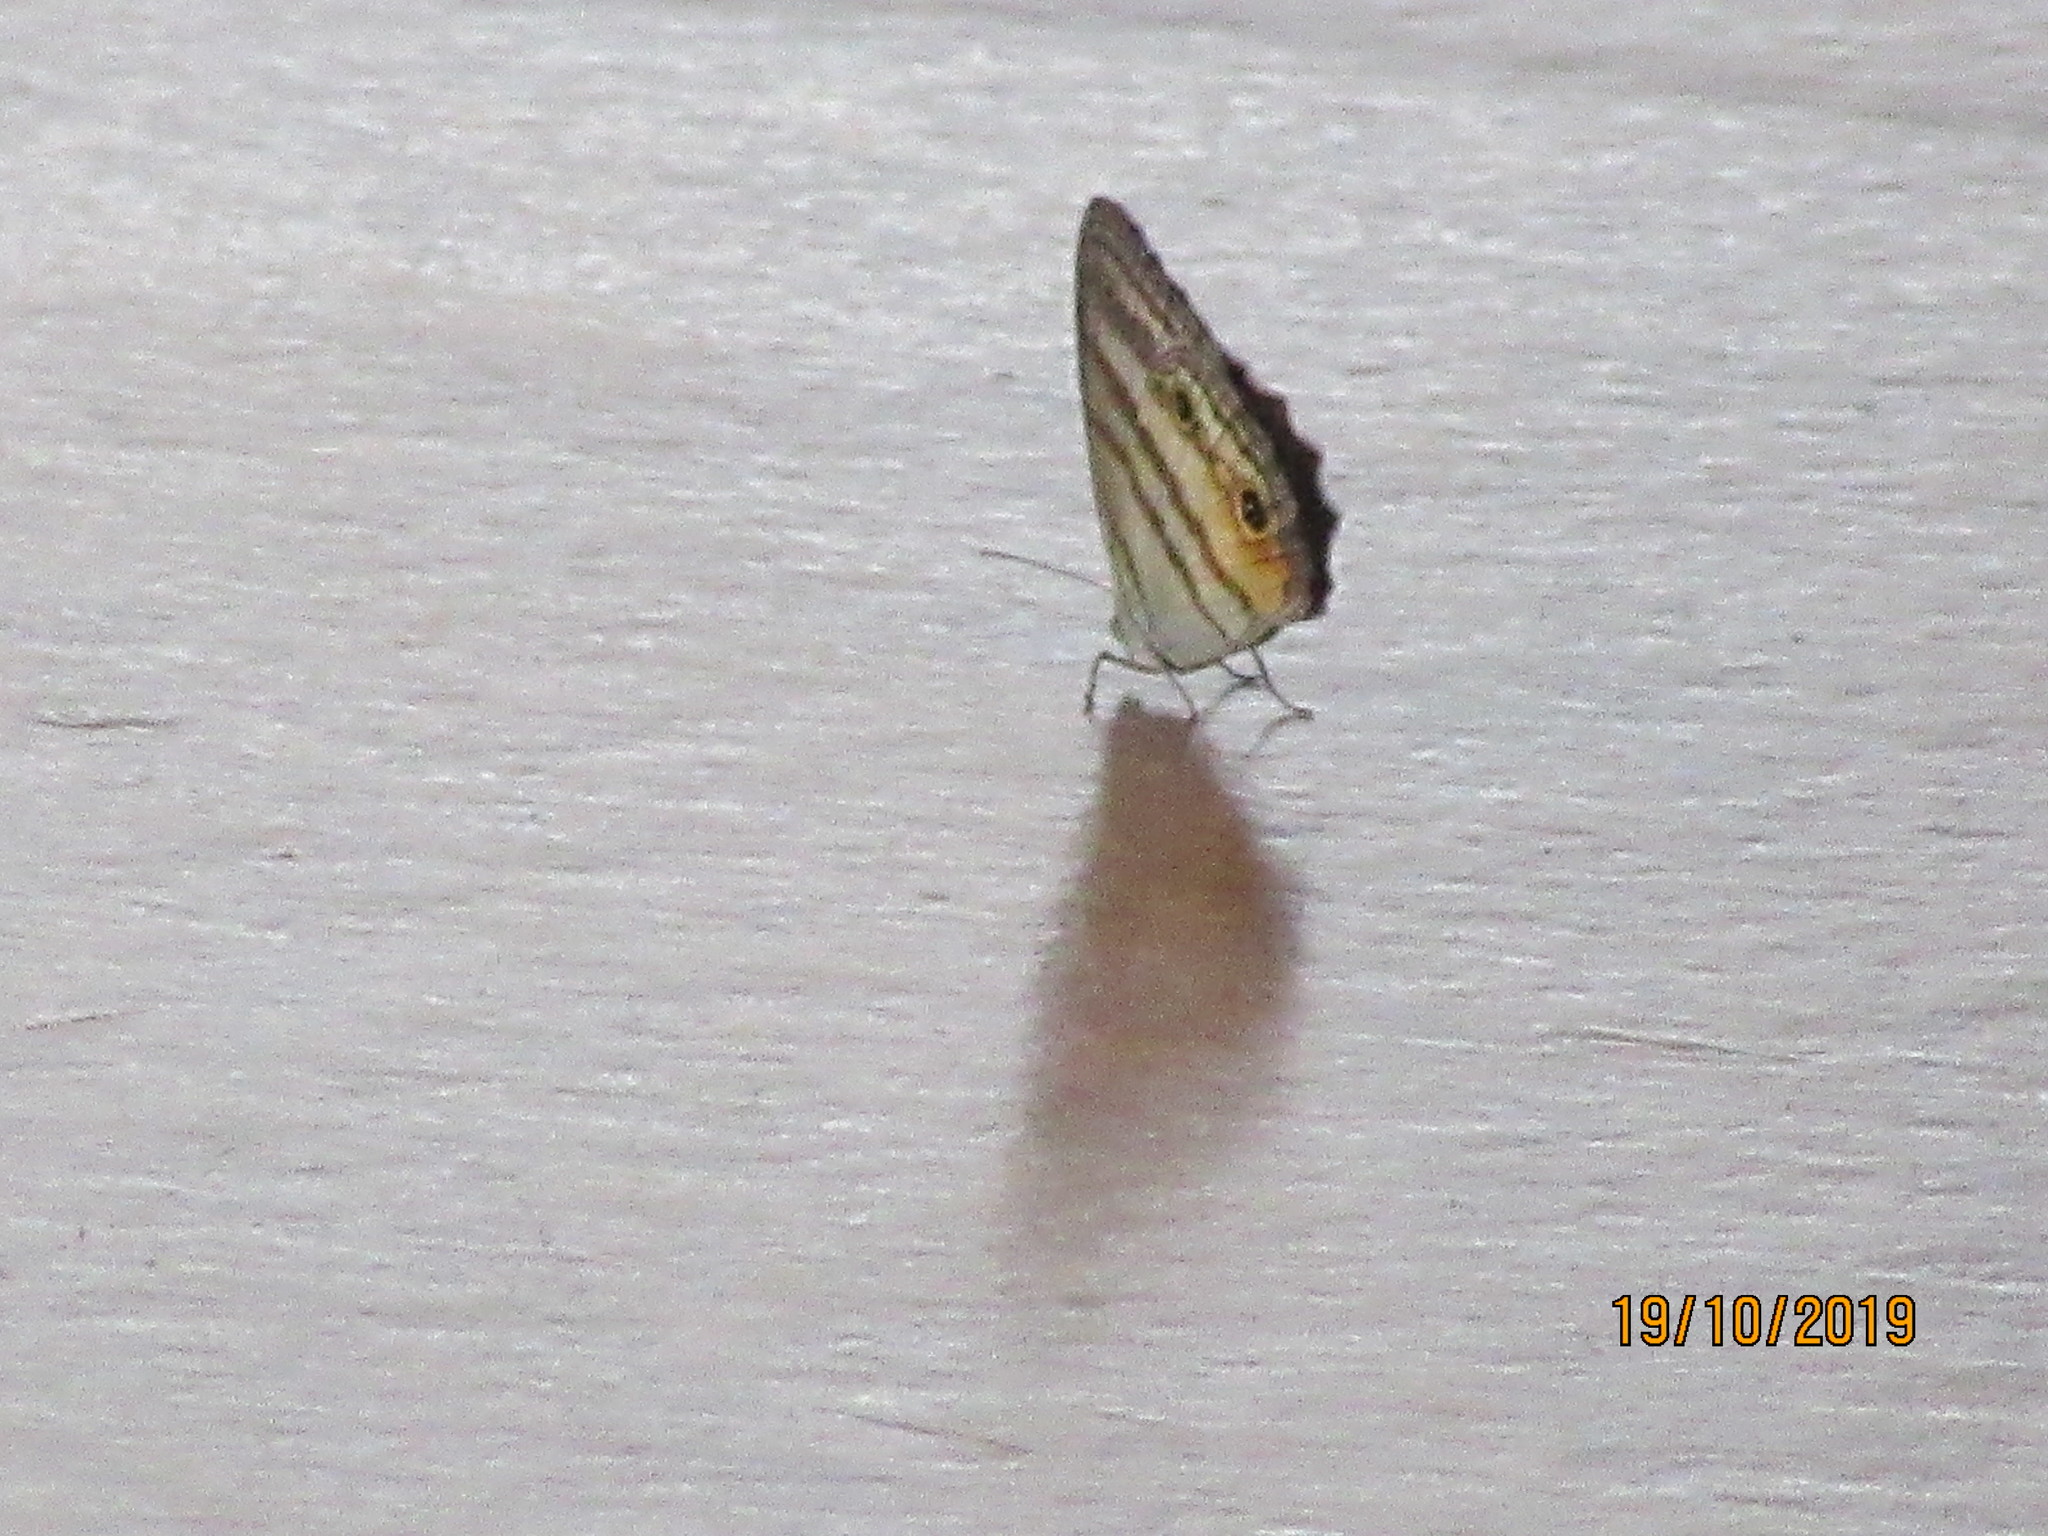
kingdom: Animalia
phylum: Arthropoda
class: Insecta
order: Lepidoptera
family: Nymphalidae
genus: Caeruleuptychia
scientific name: Caeruleuptychia helios
